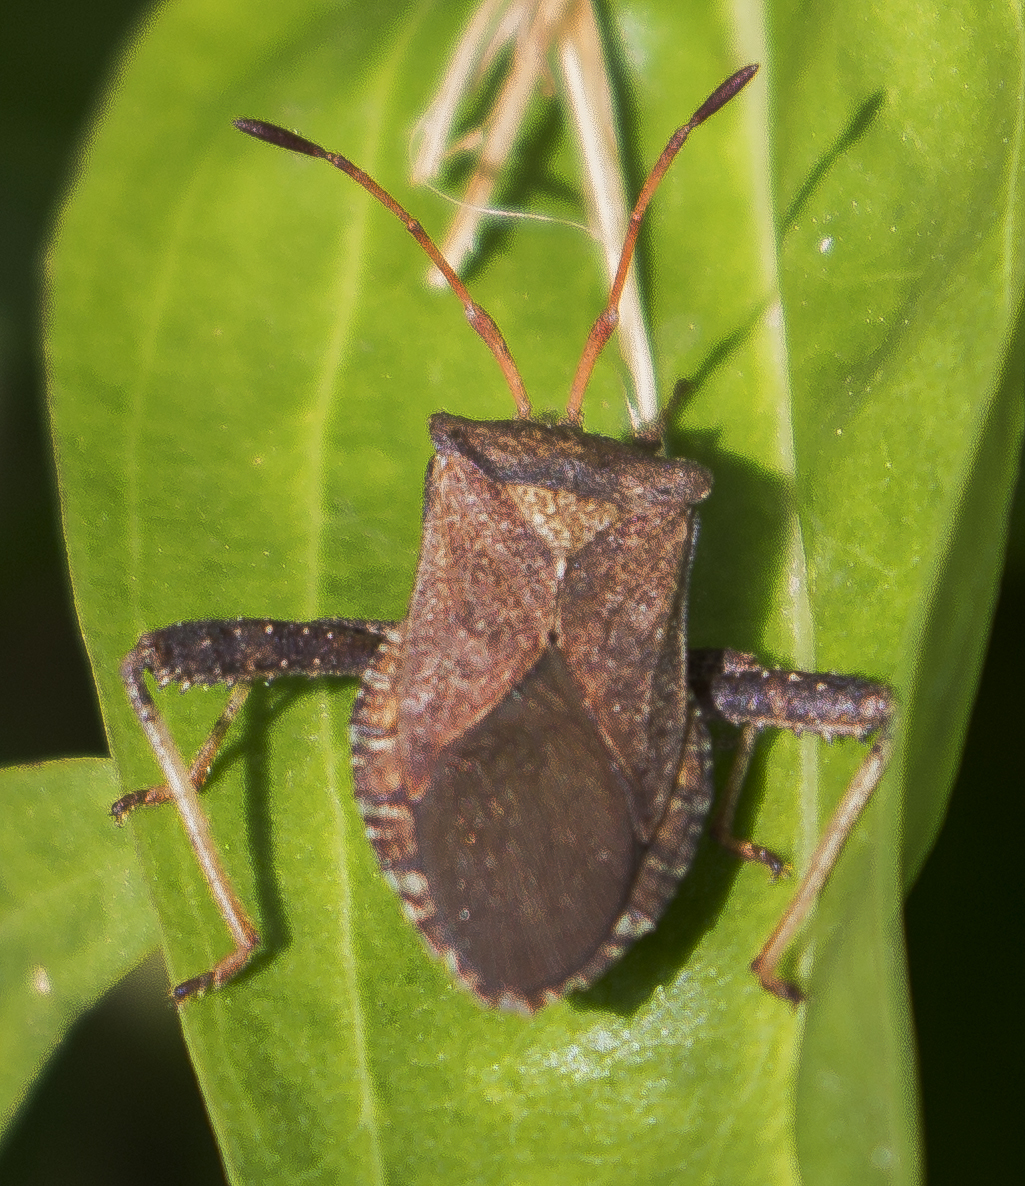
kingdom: Animalia
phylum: Arthropoda
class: Insecta
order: Hemiptera
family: Coreidae
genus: Euthochtha
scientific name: Euthochtha galeator
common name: Helmeted squash bug
